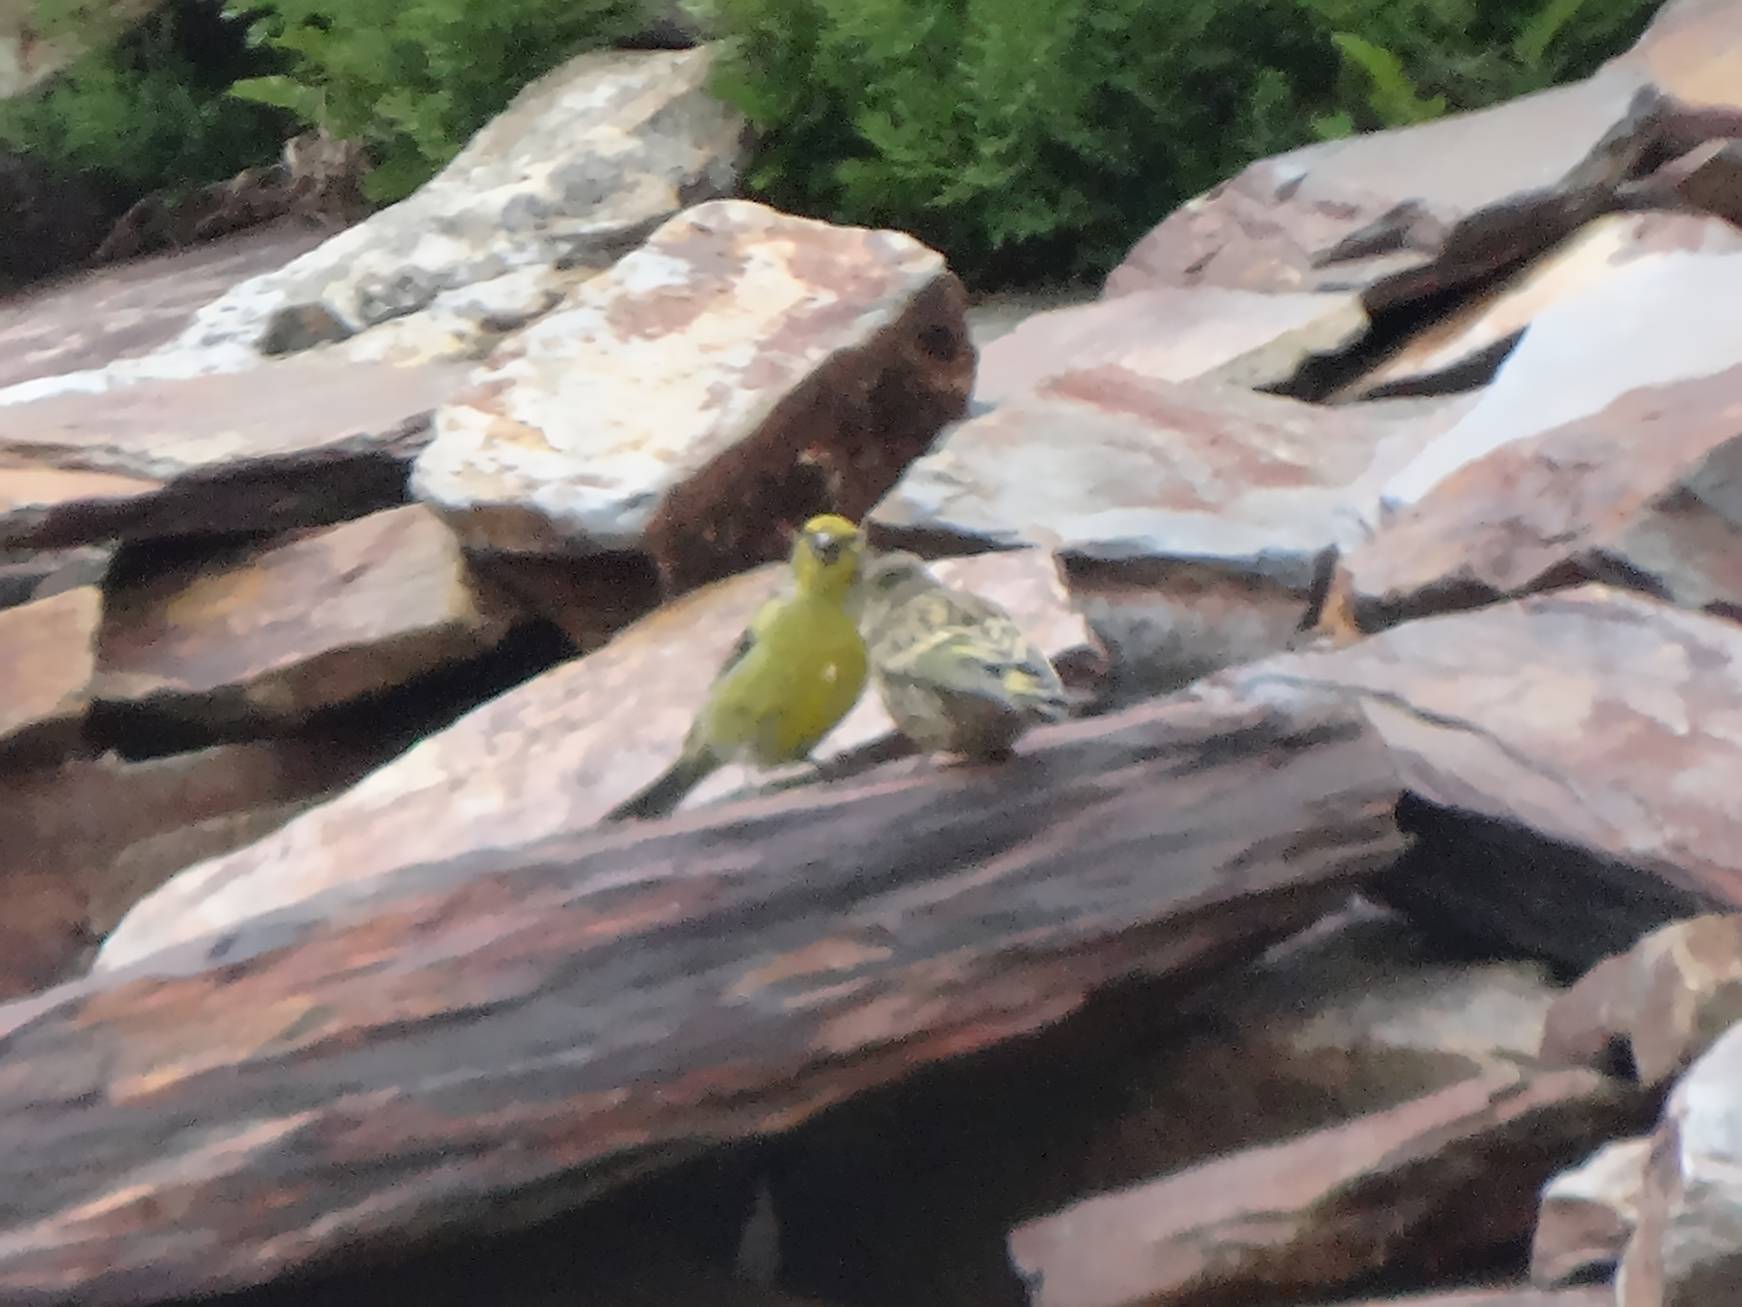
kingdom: Animalia
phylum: Chordata
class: Aves
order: Passeriformes
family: Fringillidae
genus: Carduelis
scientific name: Carduelis citrinella
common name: Citril finch
